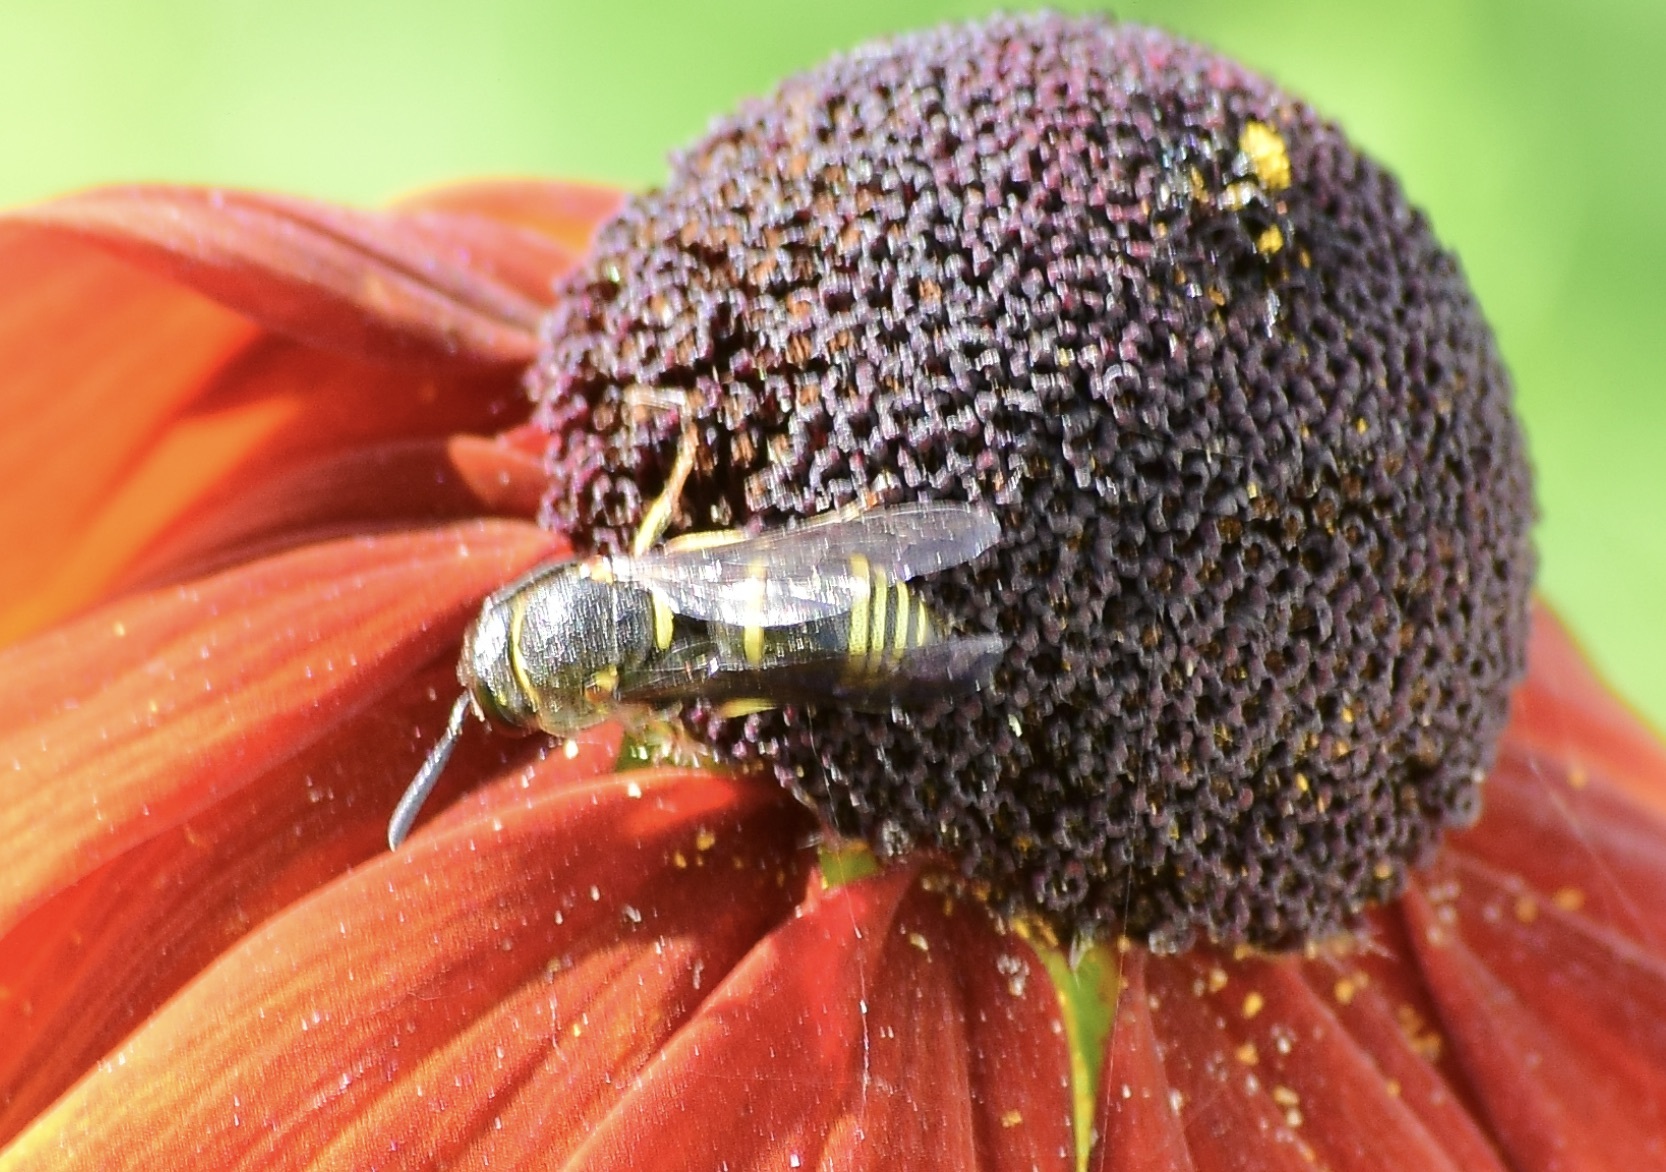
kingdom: Animalia
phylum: Arthropoda
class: Insecta
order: Hymenoptera
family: Eumenidae
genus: Euodynerus
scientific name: Euodynerus foraminatus
